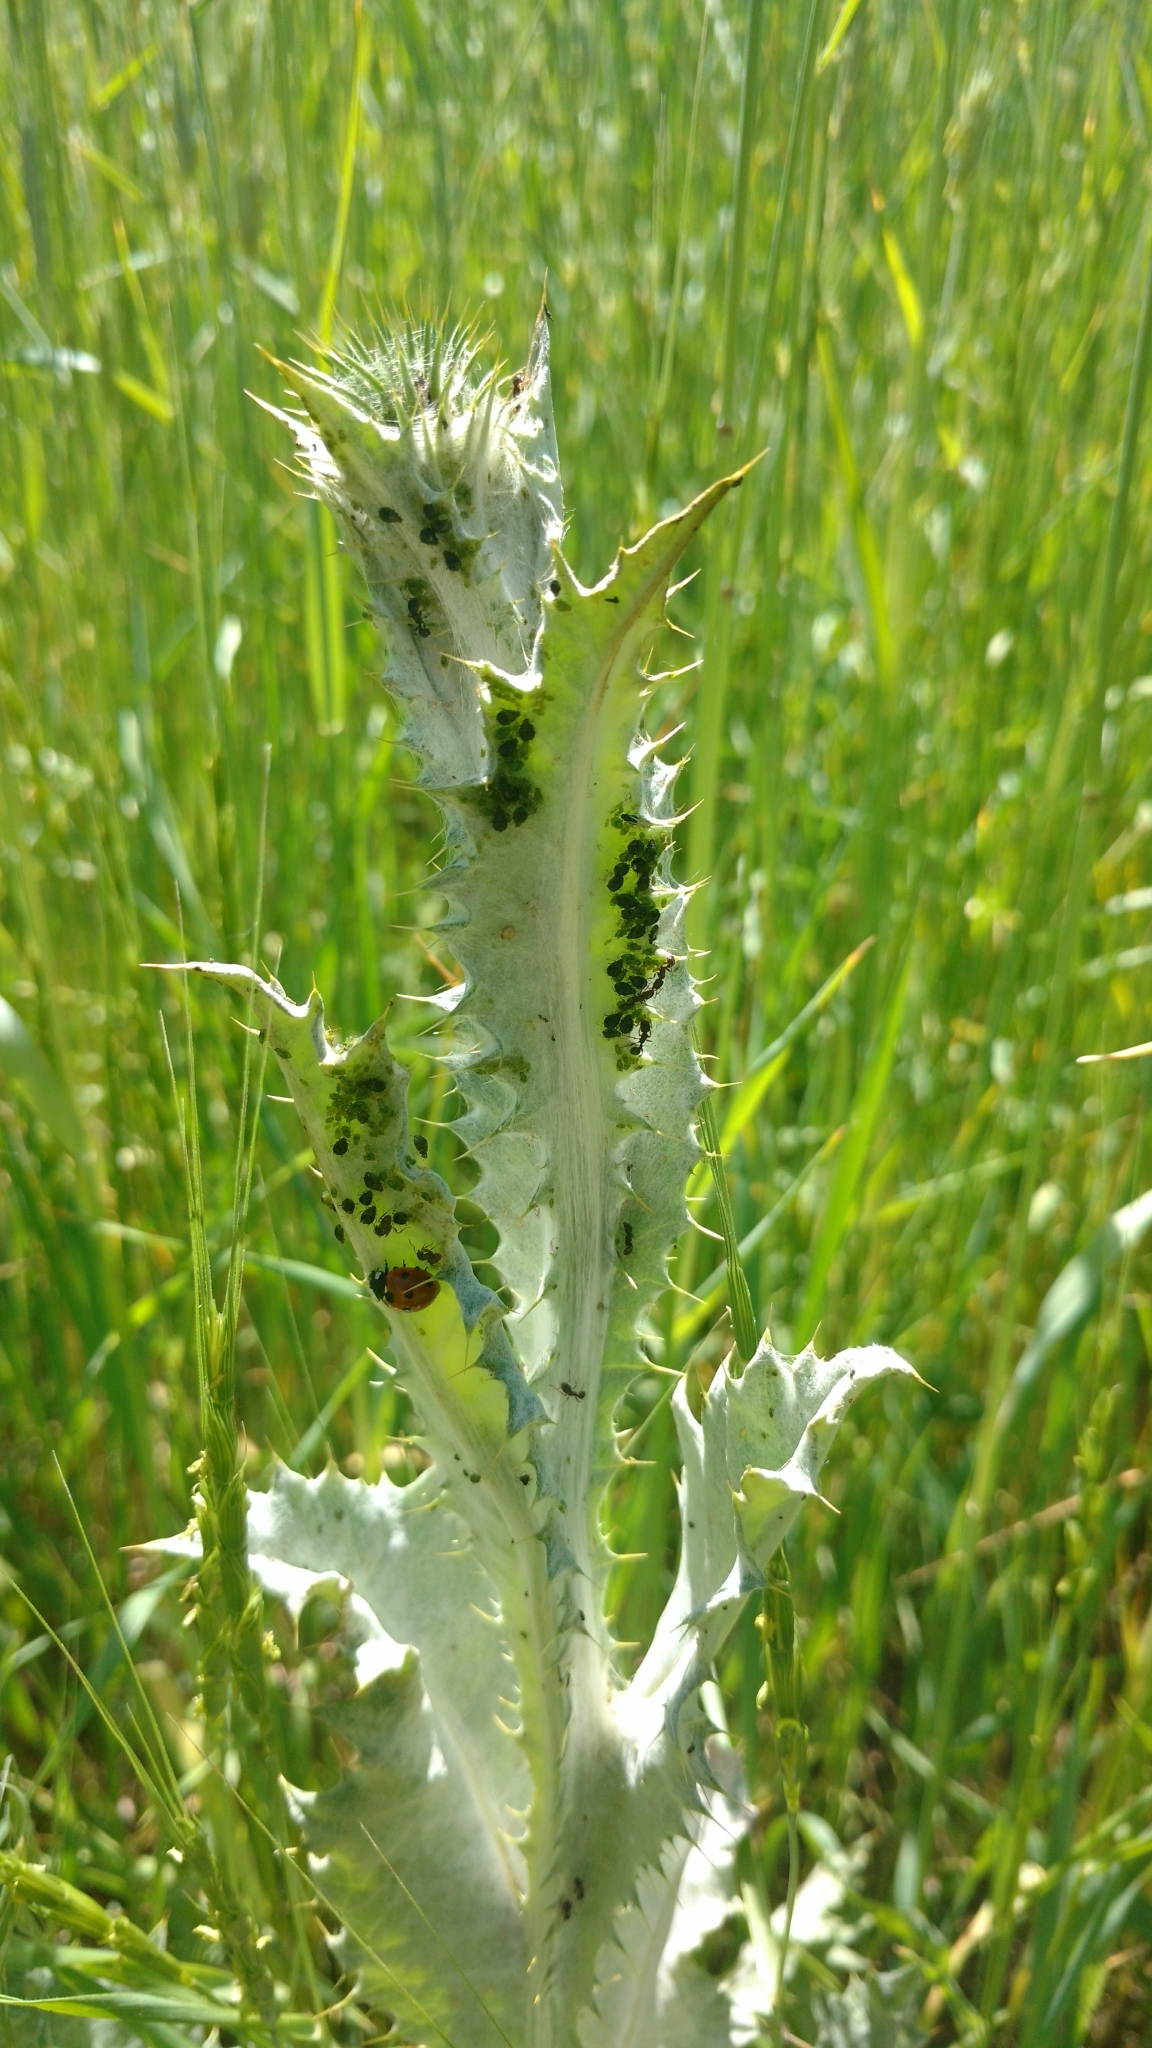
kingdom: Plantae
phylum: Tracheophyta
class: Magnoliopsida
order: Asterales
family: Asteraceae
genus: Onopordum
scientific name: Onopordum acanthium
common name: Scotch thistle
